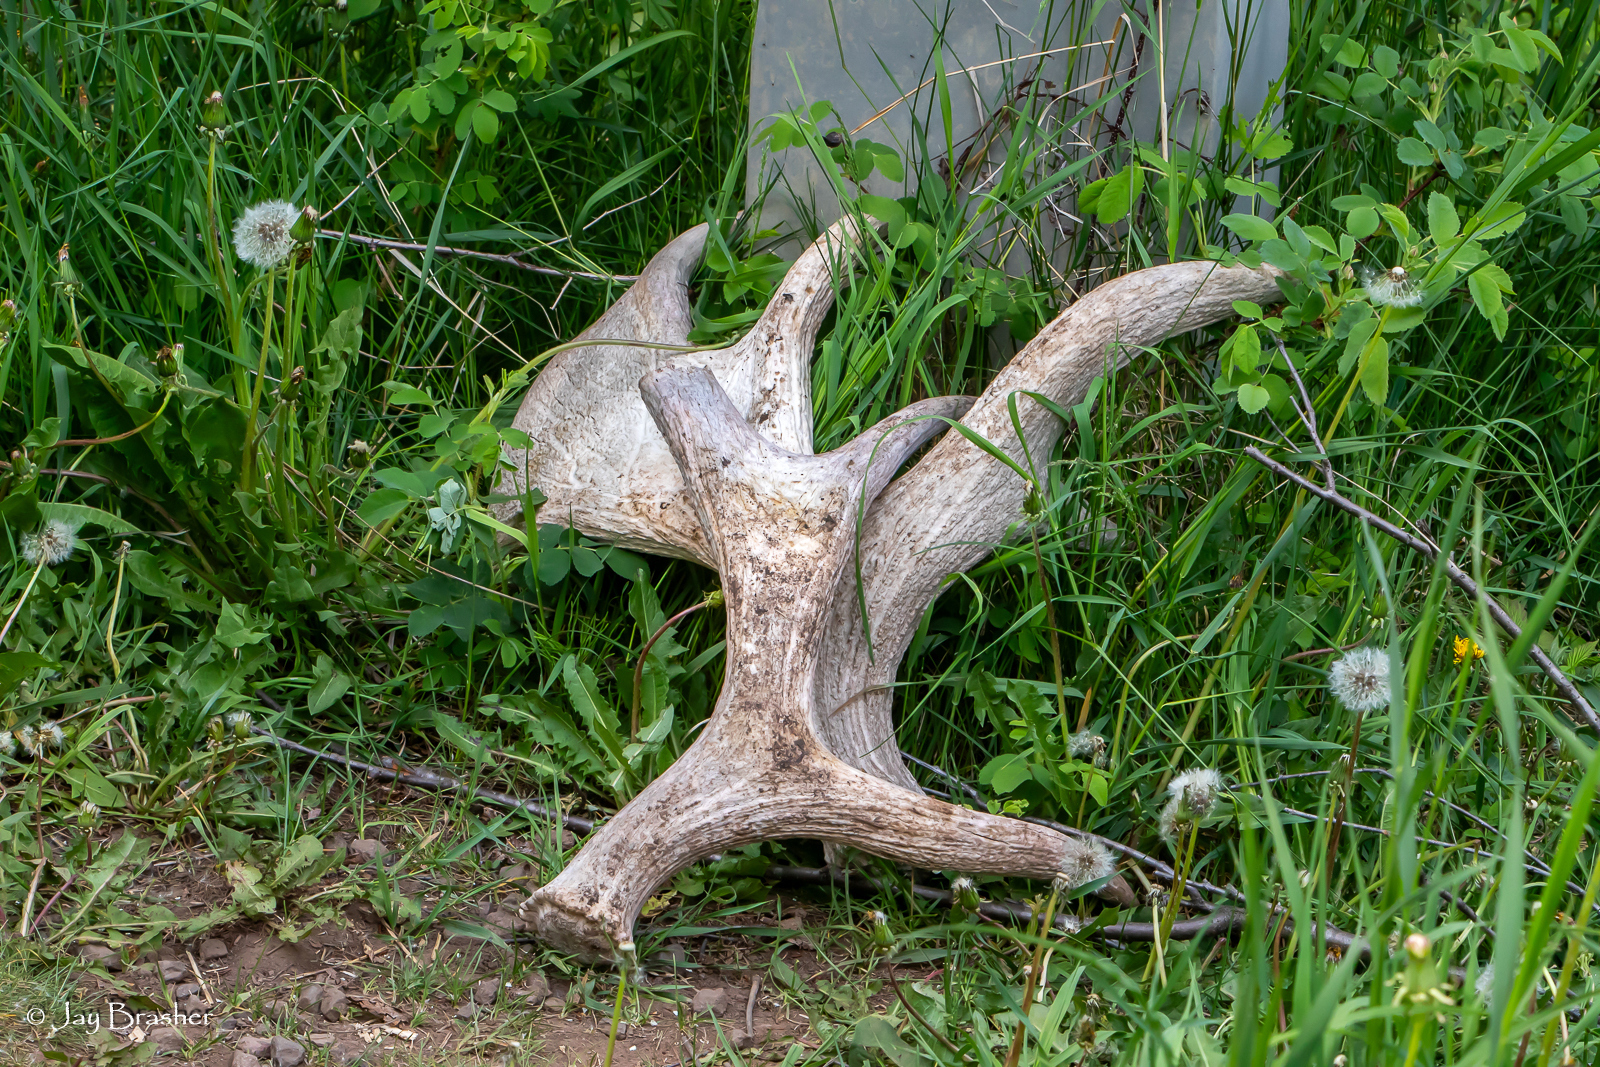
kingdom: Animalia
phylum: Chordata
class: Mammalia
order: Artiodactyla
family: Cervidae
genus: Alces
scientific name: Alces americanus
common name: Moose
